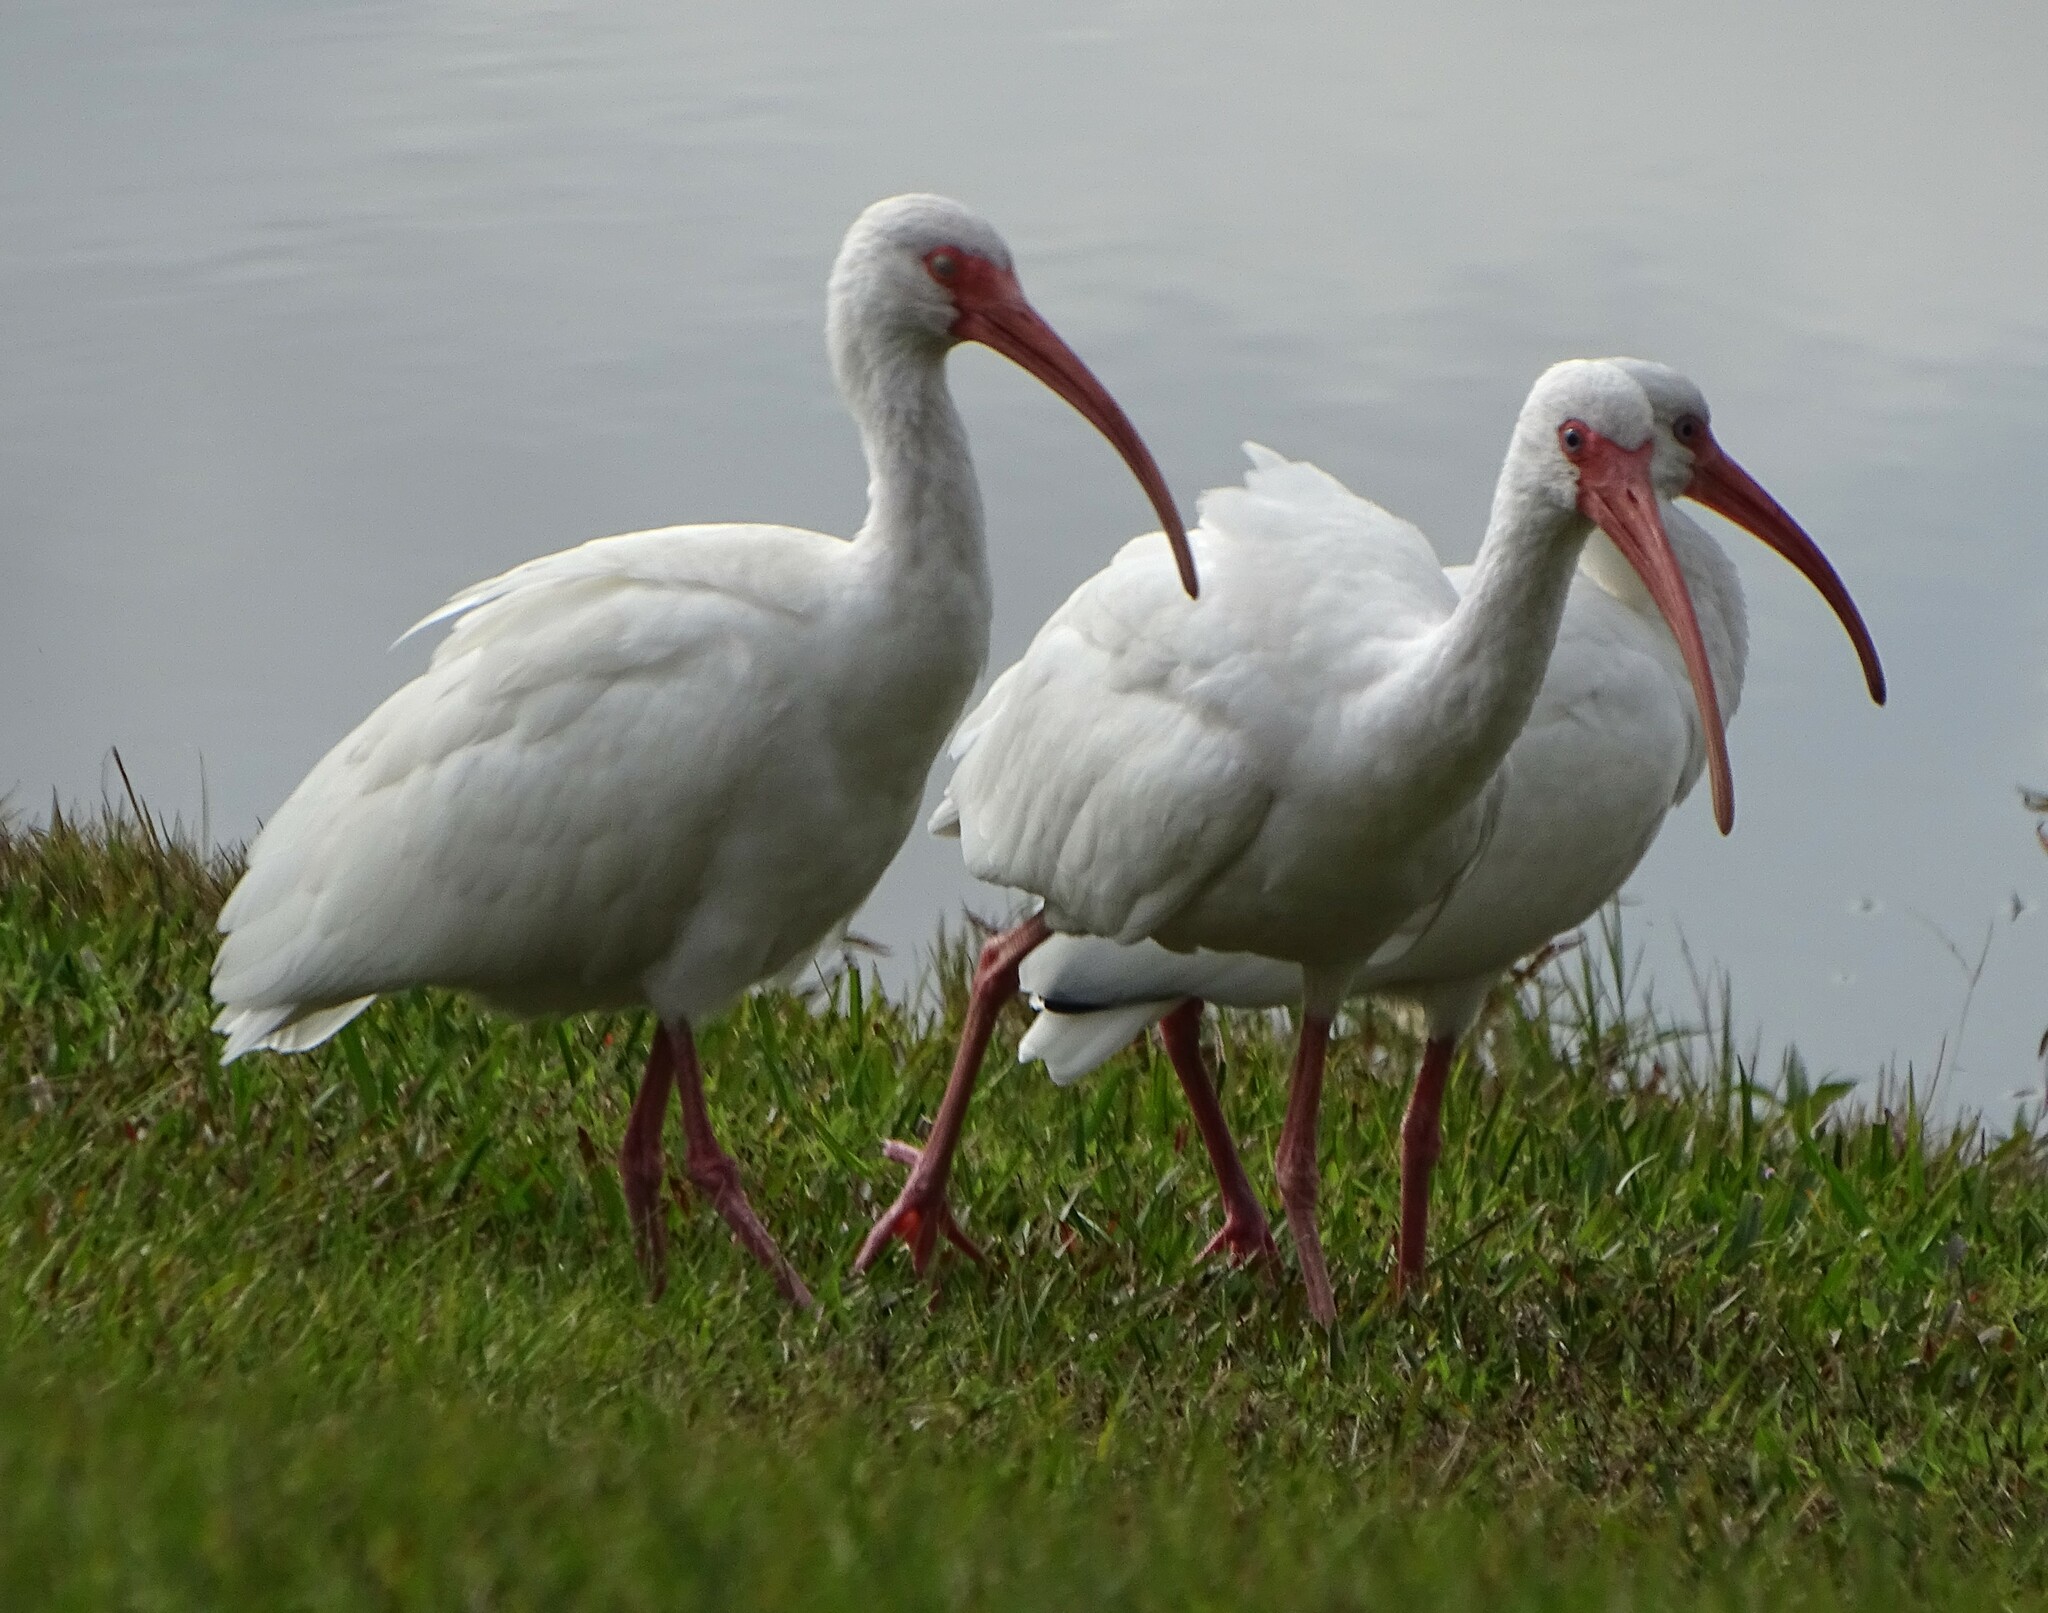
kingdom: Animalia
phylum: Chordata
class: Aves
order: Pelecaniformes
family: Threskiornithidae
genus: Eudocimus
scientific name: Eudocimus albus
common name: White ibis
